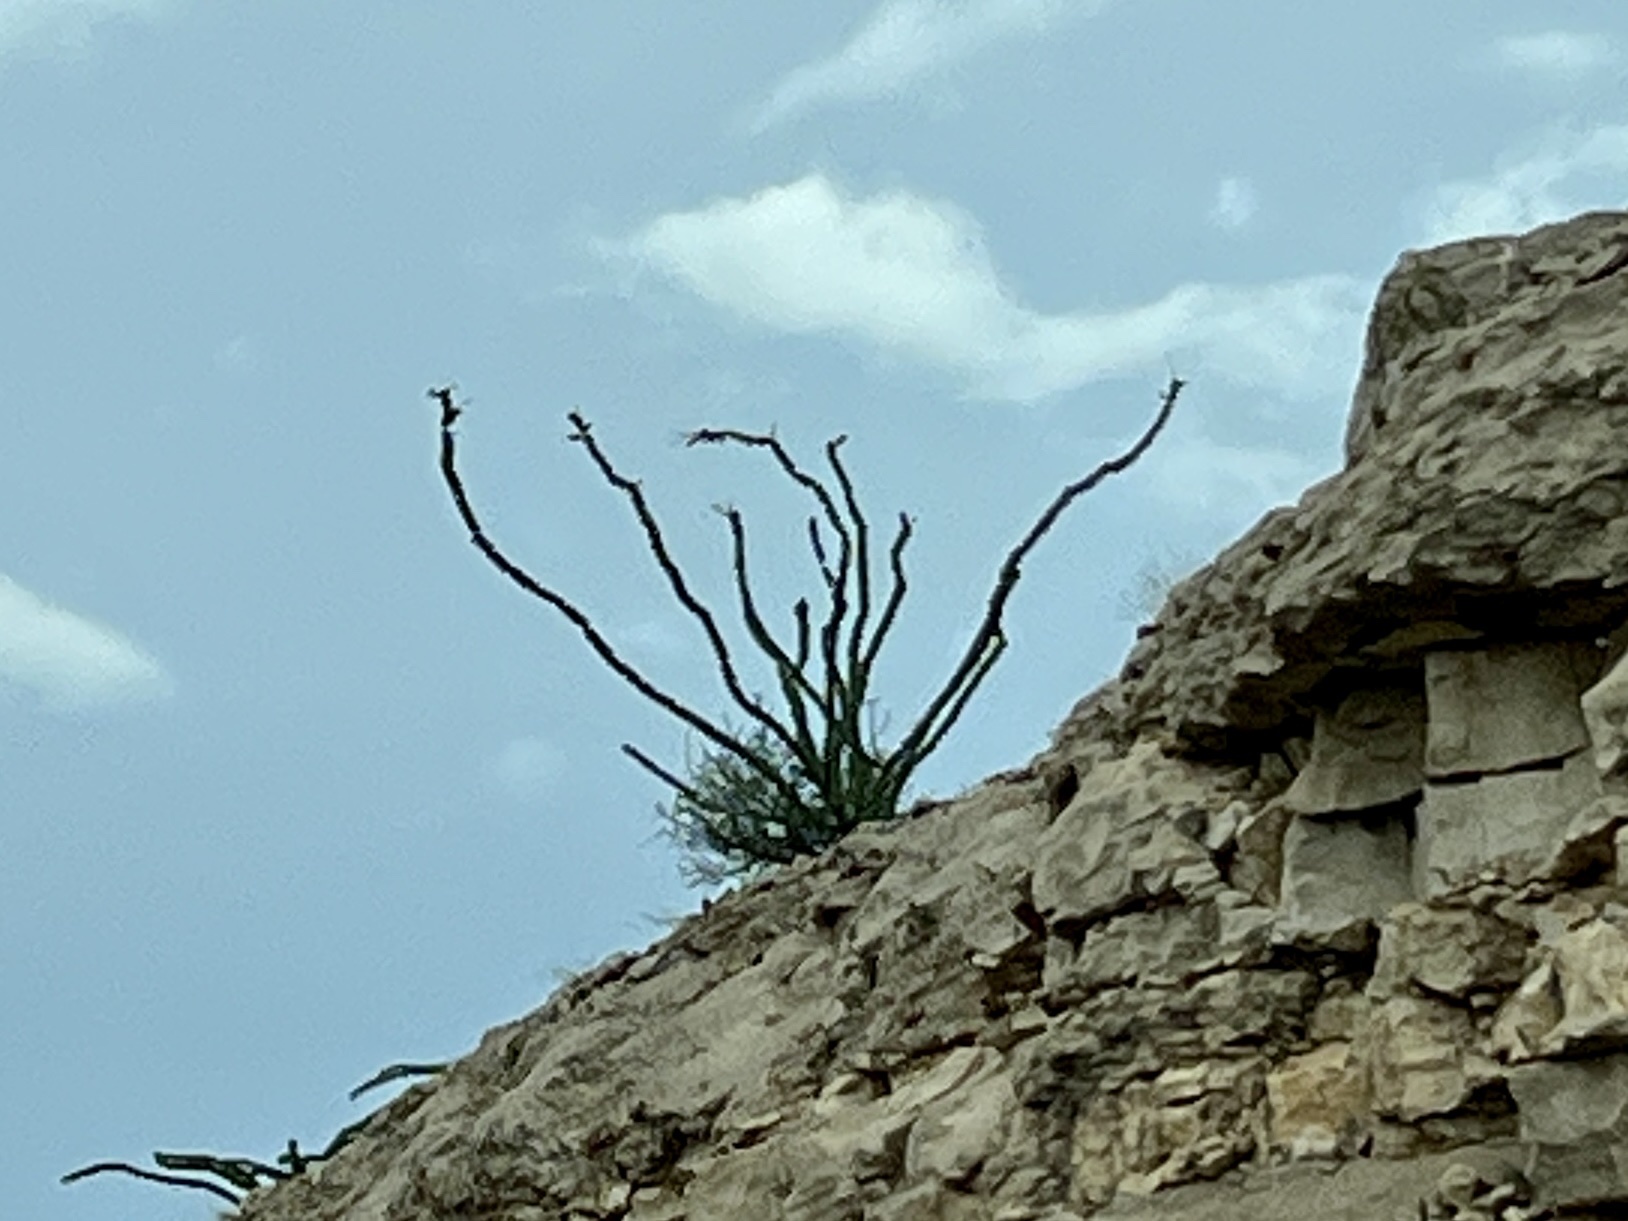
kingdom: Plantae
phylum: Tracheophyta
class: Magnoliopsida
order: Ericales
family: Fouquieriaceae
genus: Fouquieria
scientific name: Fouquieria splendens
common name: Vine-cactus
